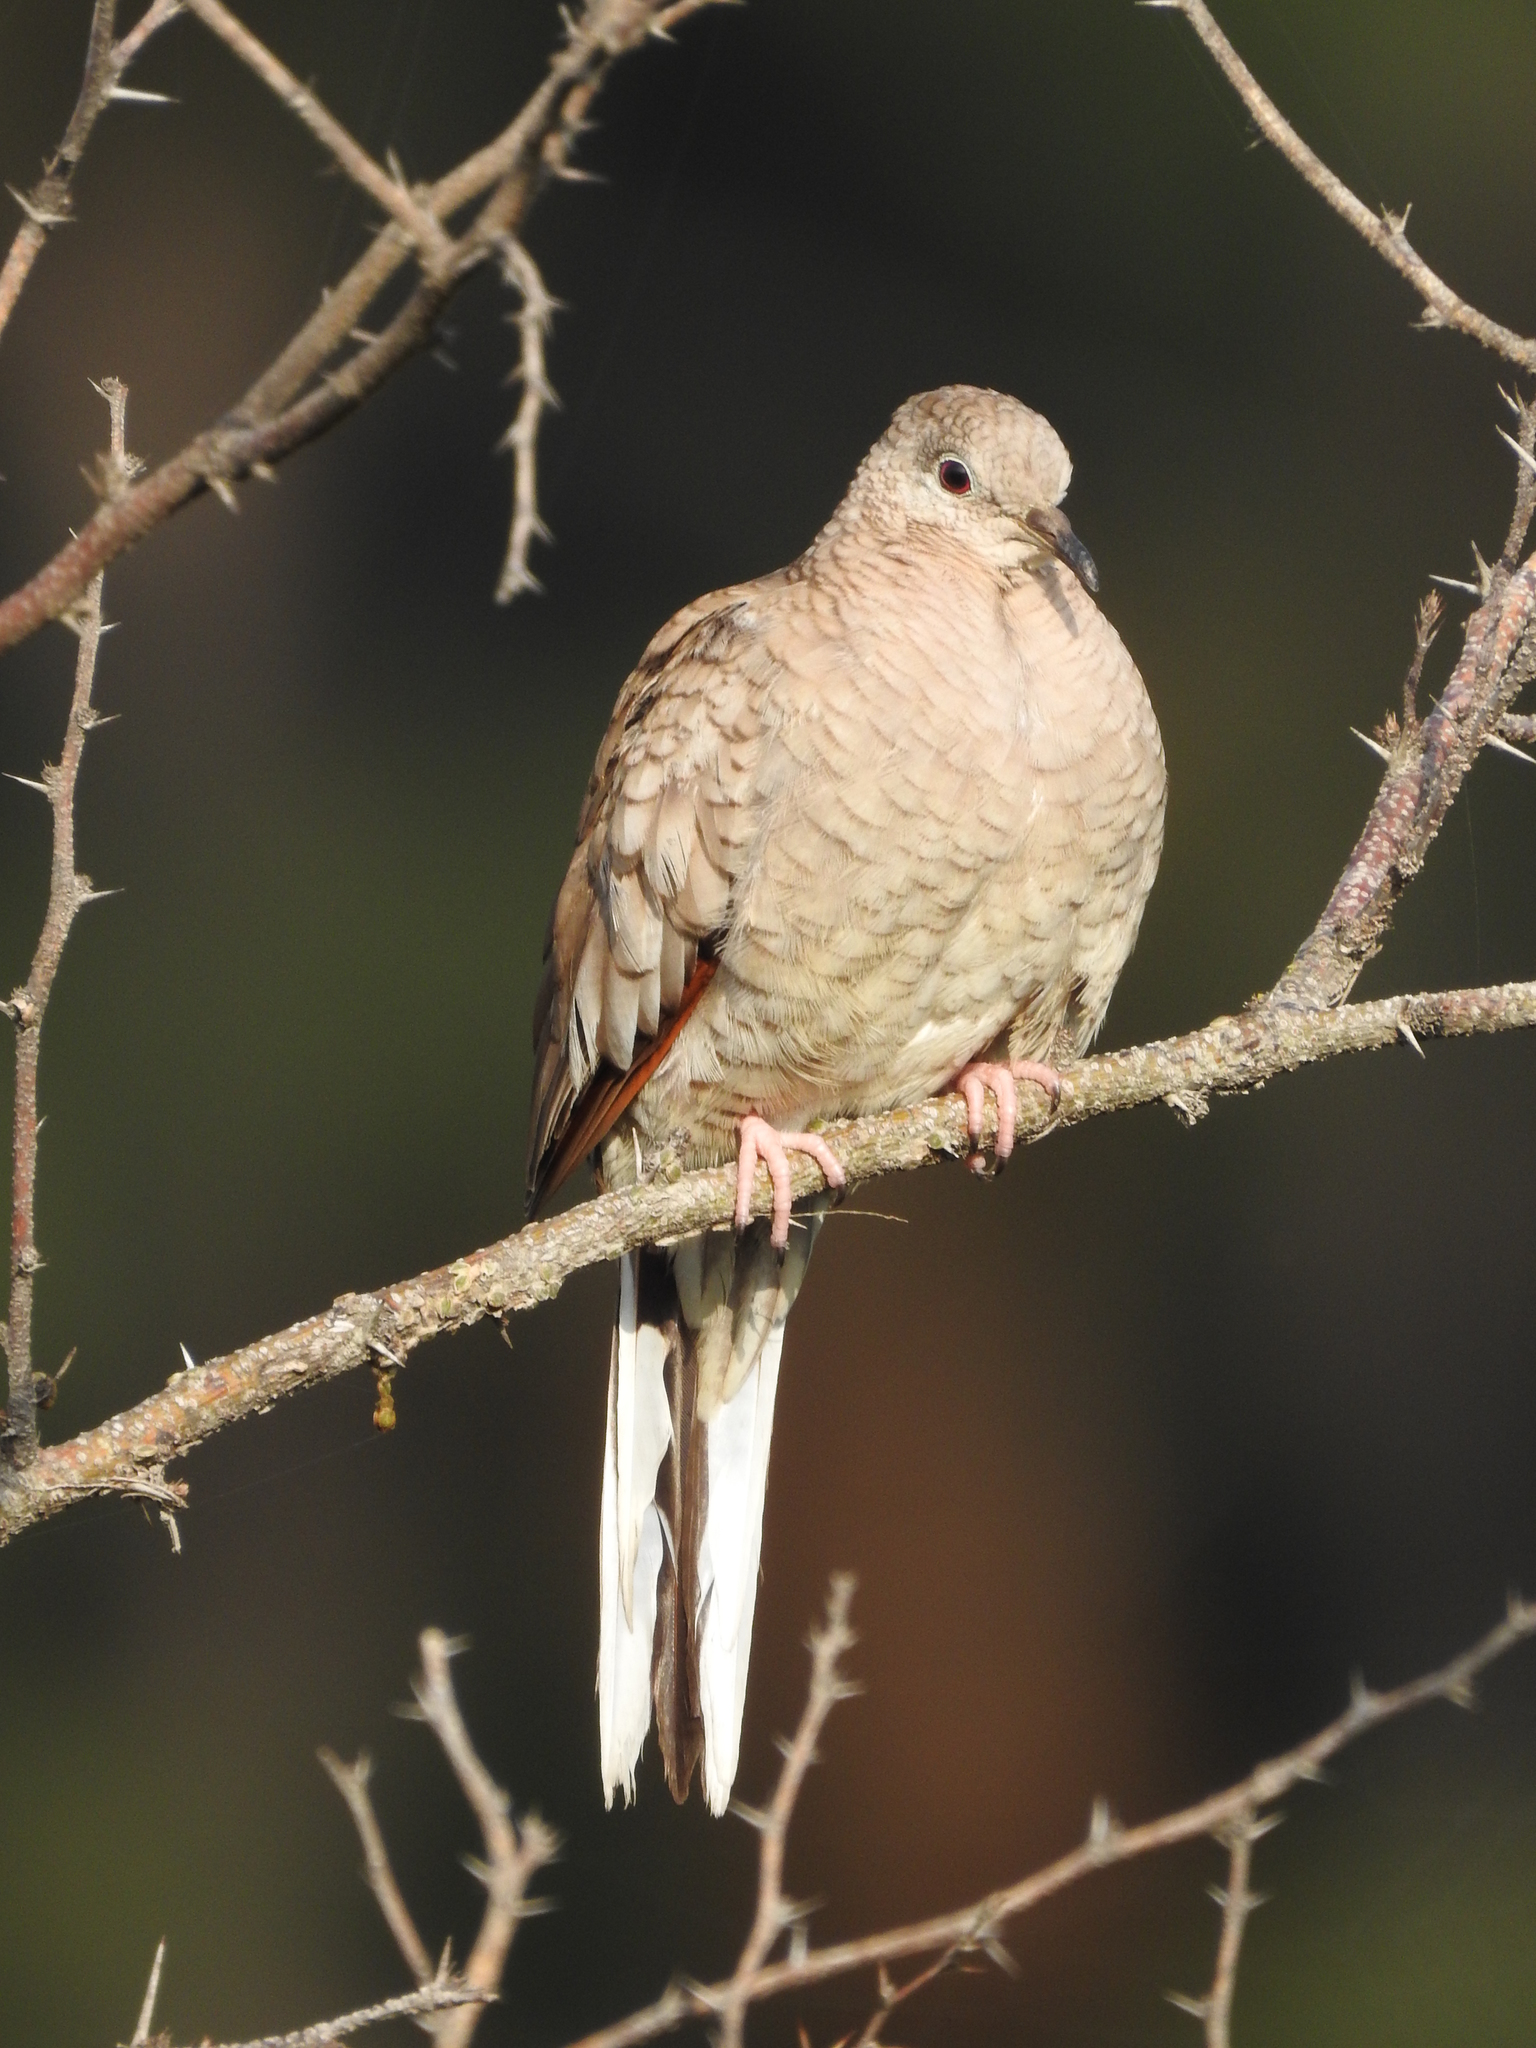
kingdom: Animalia
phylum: Chordata
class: Aves
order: Columbiformes
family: Columbidae
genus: Columbina
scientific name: Columbina inca
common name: Inca dove
